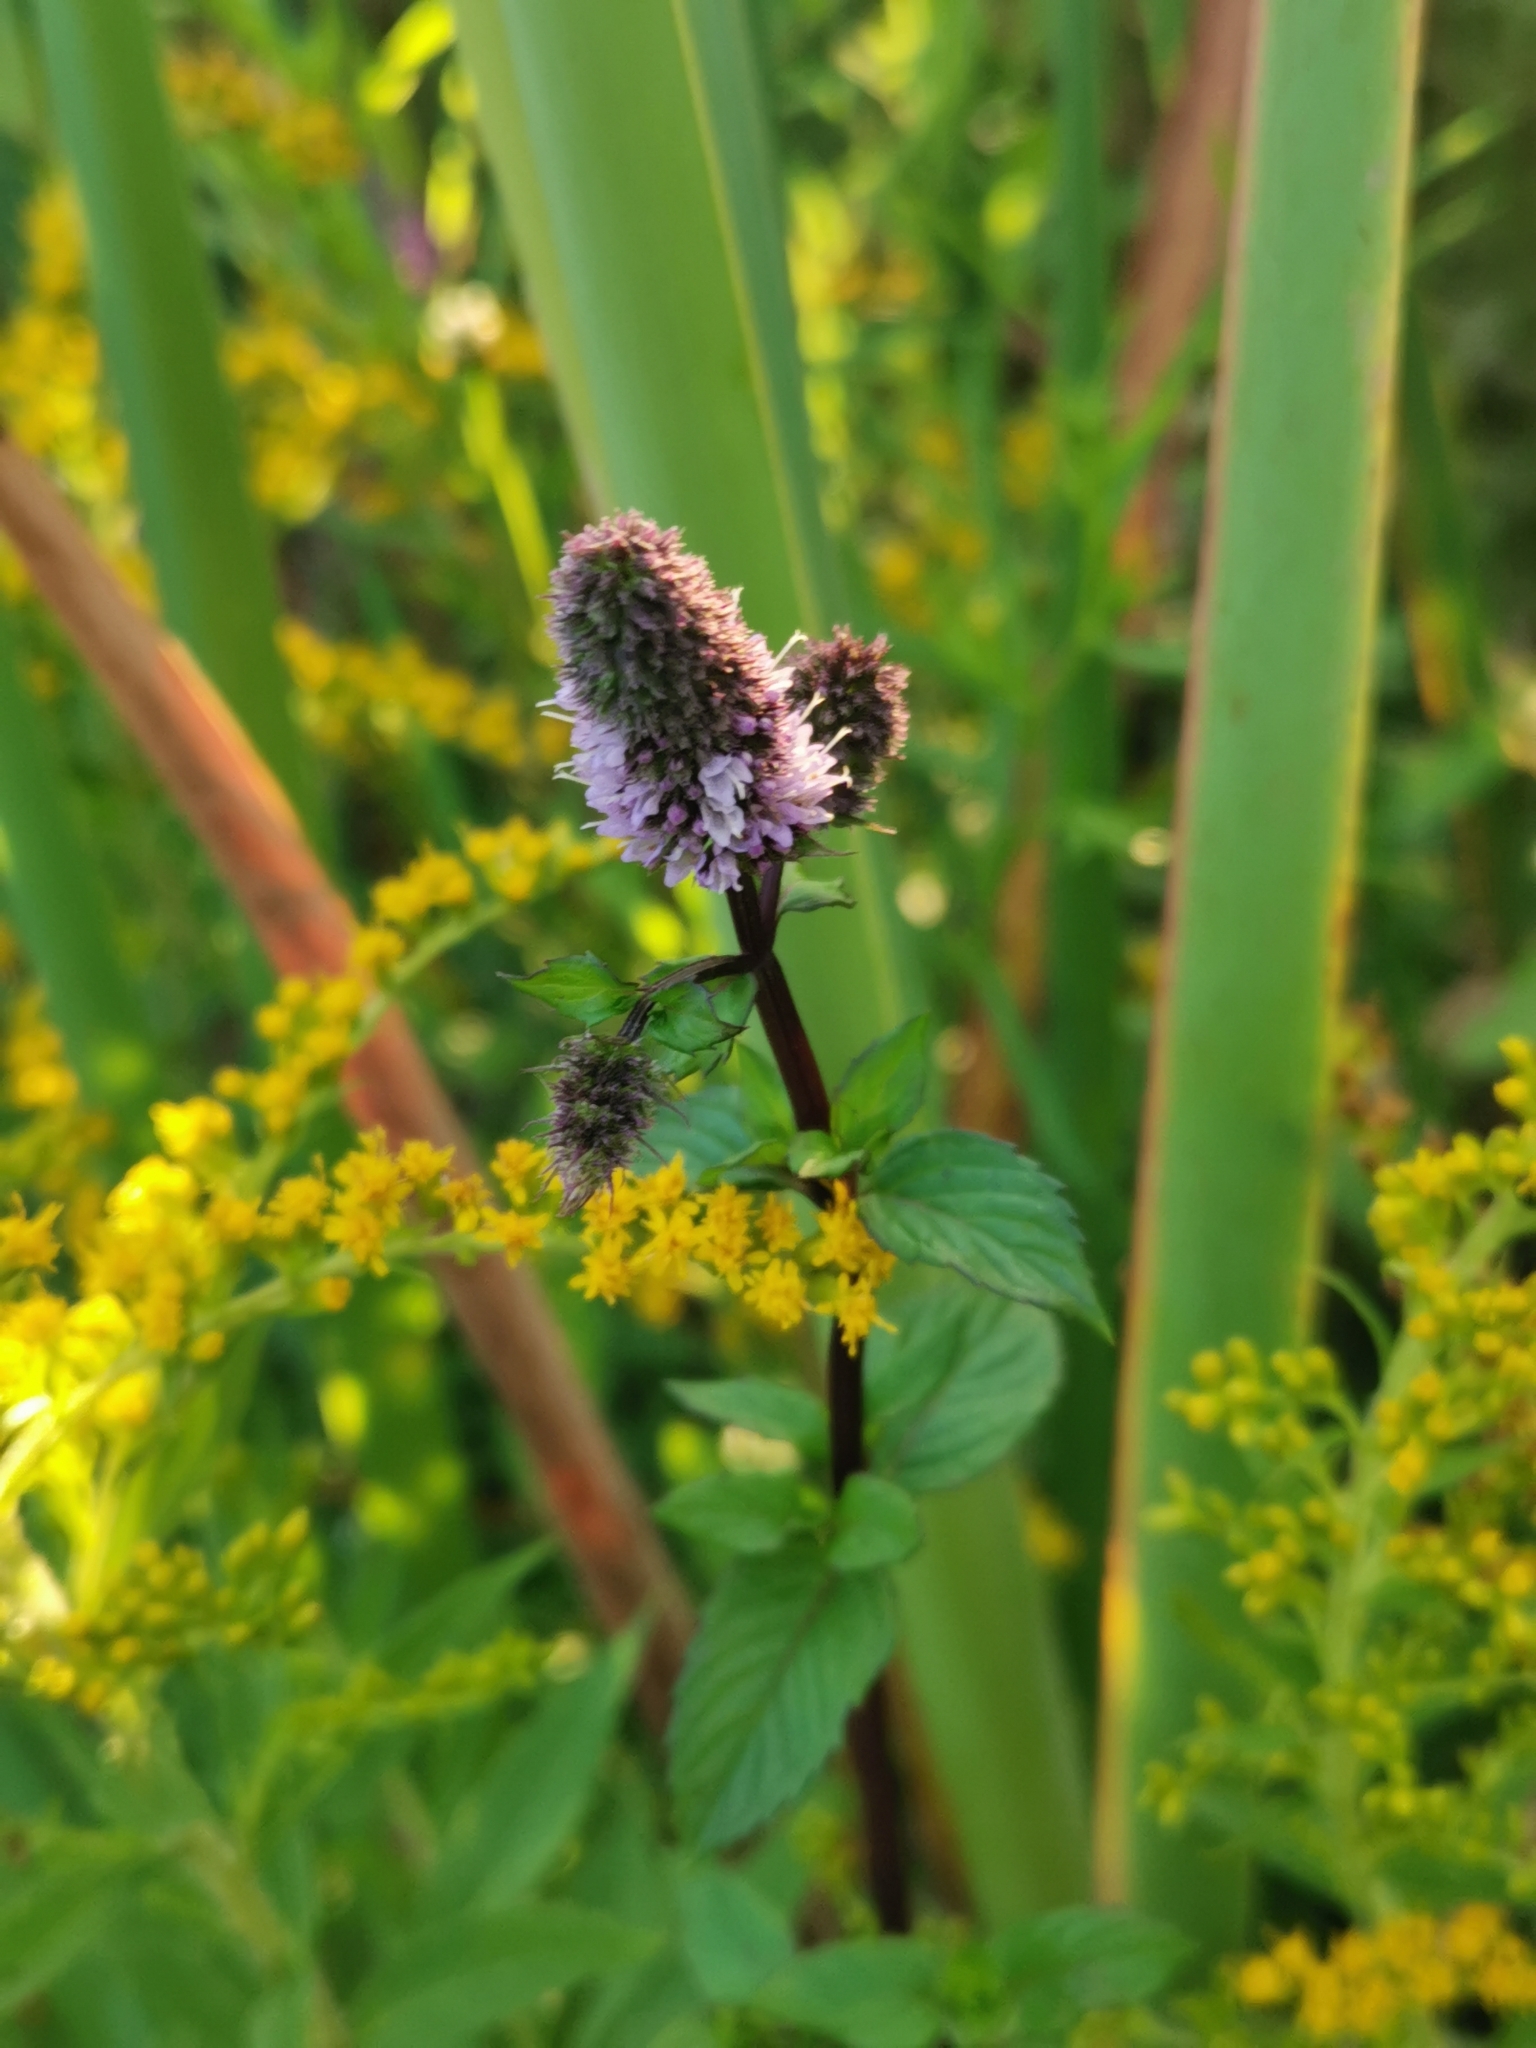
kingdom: Plantae
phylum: Tracheophyta
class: Magnoliopsida
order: Lamiales
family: Lamiaceae
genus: Mentha
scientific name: Mentha canadensis
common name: American corn mint
